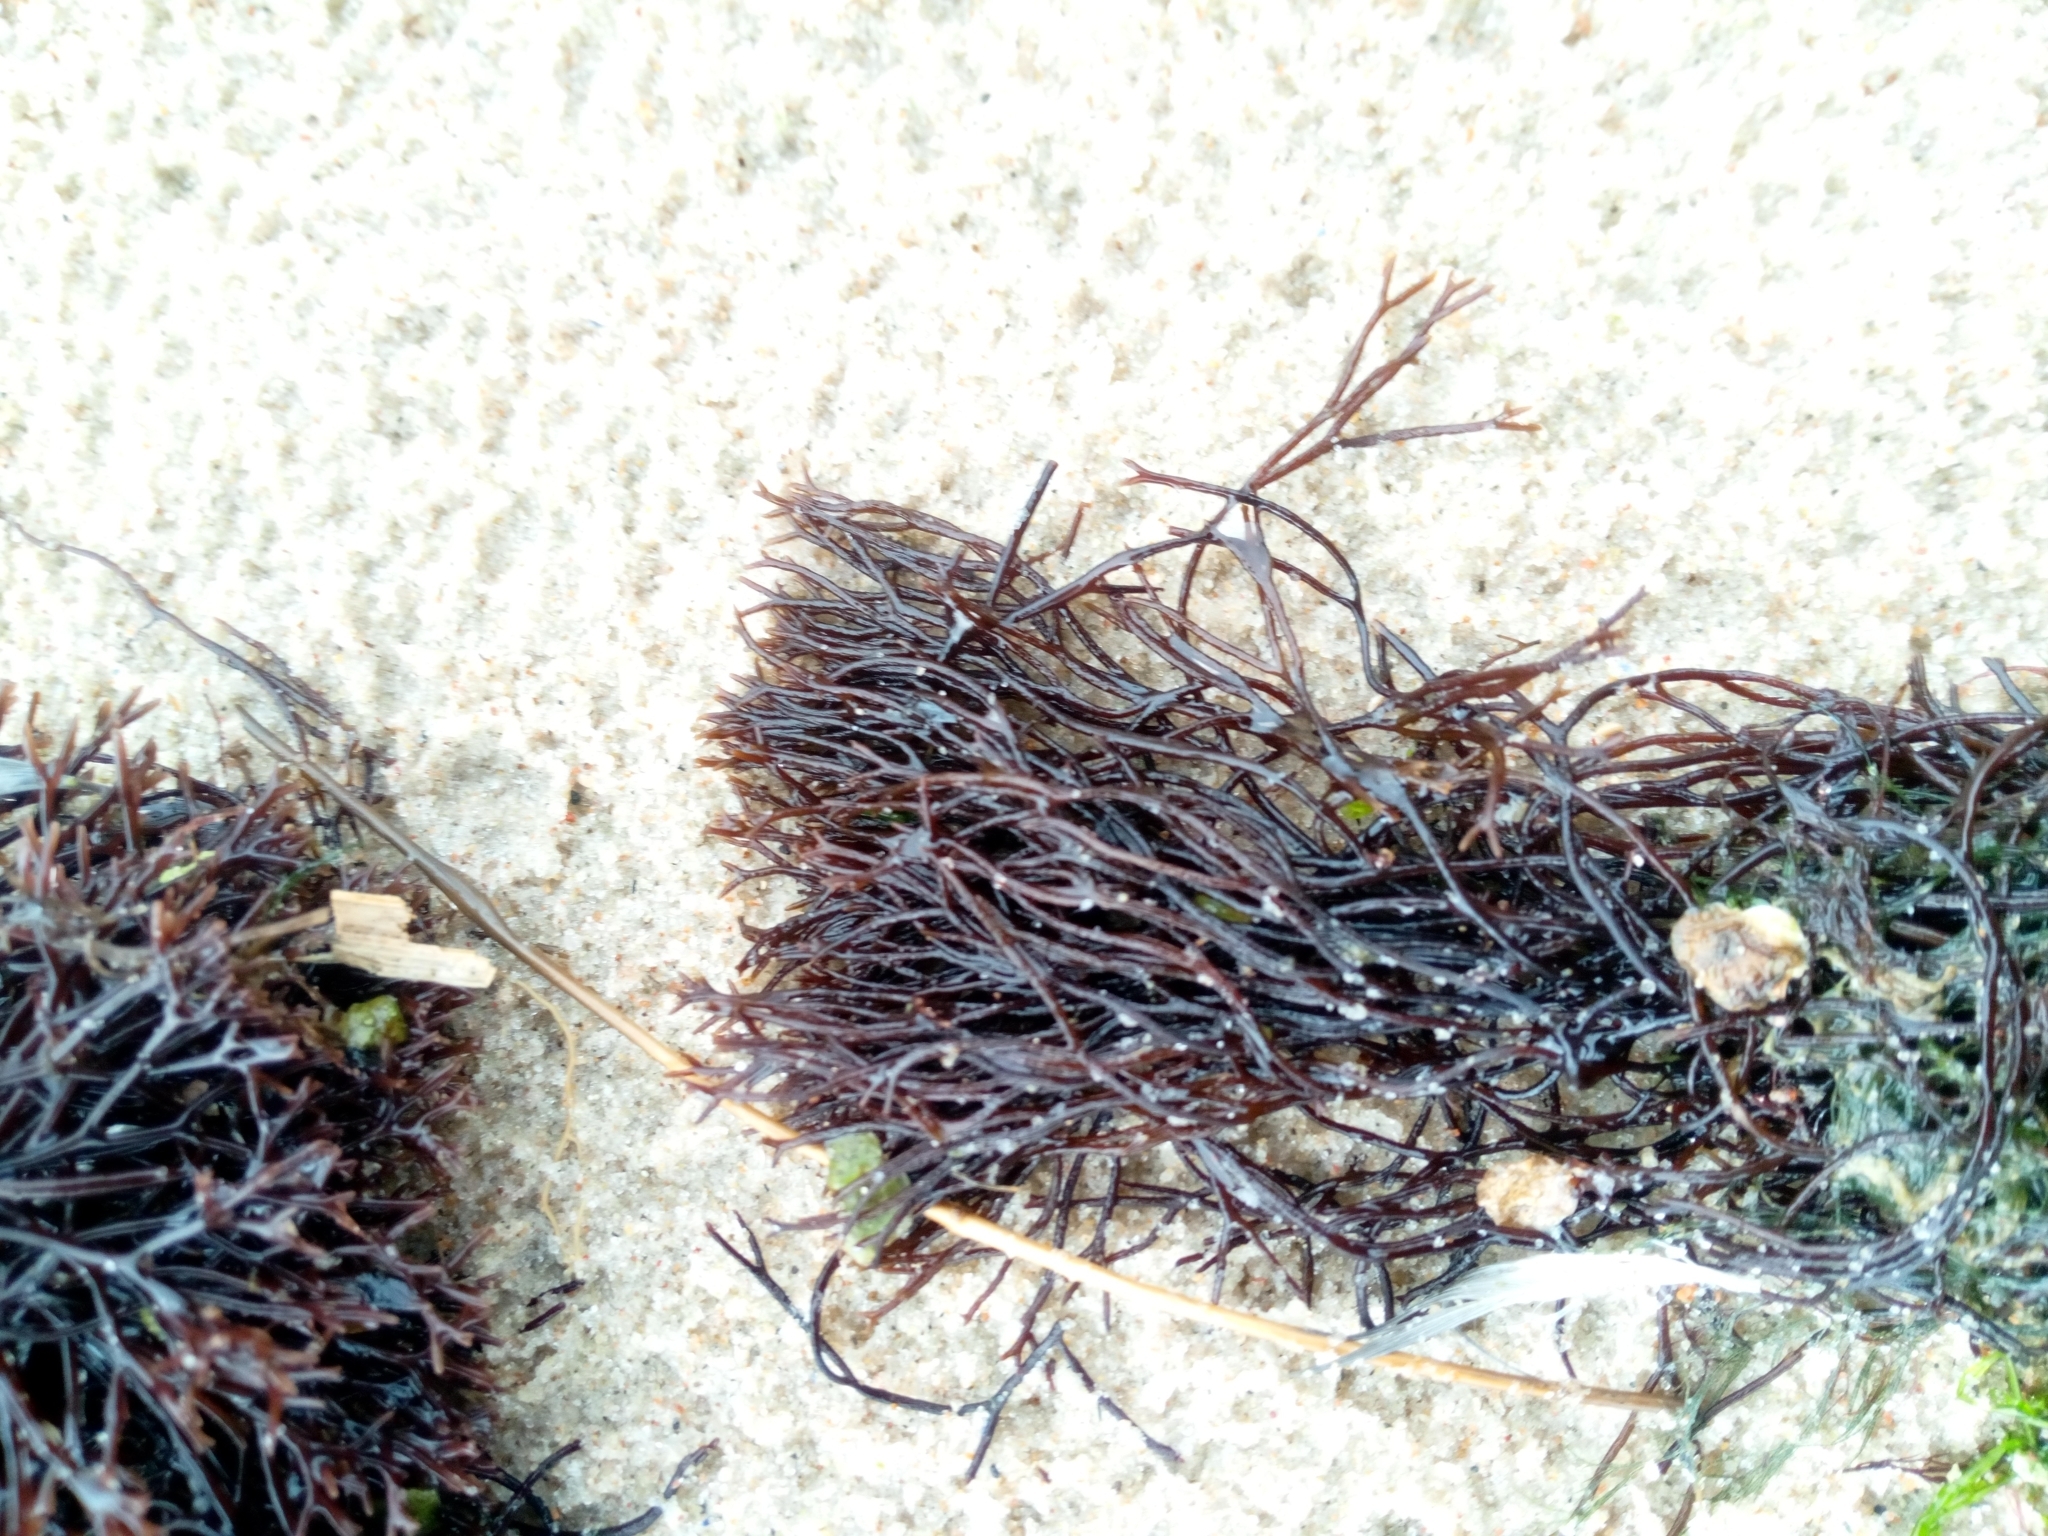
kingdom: Plantae
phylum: Rhodophyta
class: Florideophyceae
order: Gigartinales
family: Furcellariaceae
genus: Furcellaria
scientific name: Furcellaria lumbricalis
